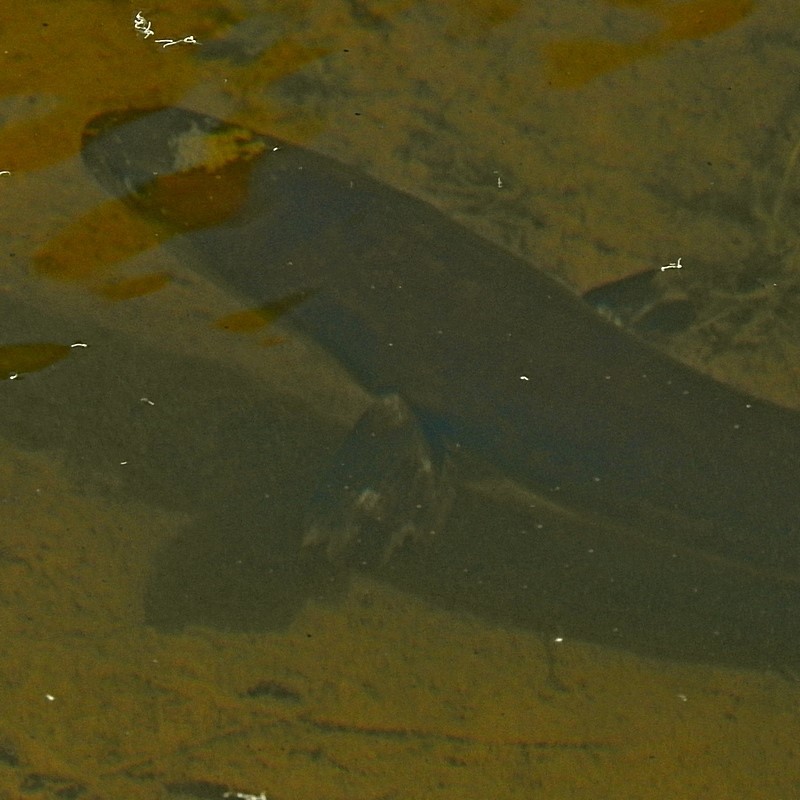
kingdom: Animalia
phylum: Chordata
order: Anguilliformes
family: Anguillidae
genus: Anguilla
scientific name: Anguilla australis
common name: Shortfin eel
